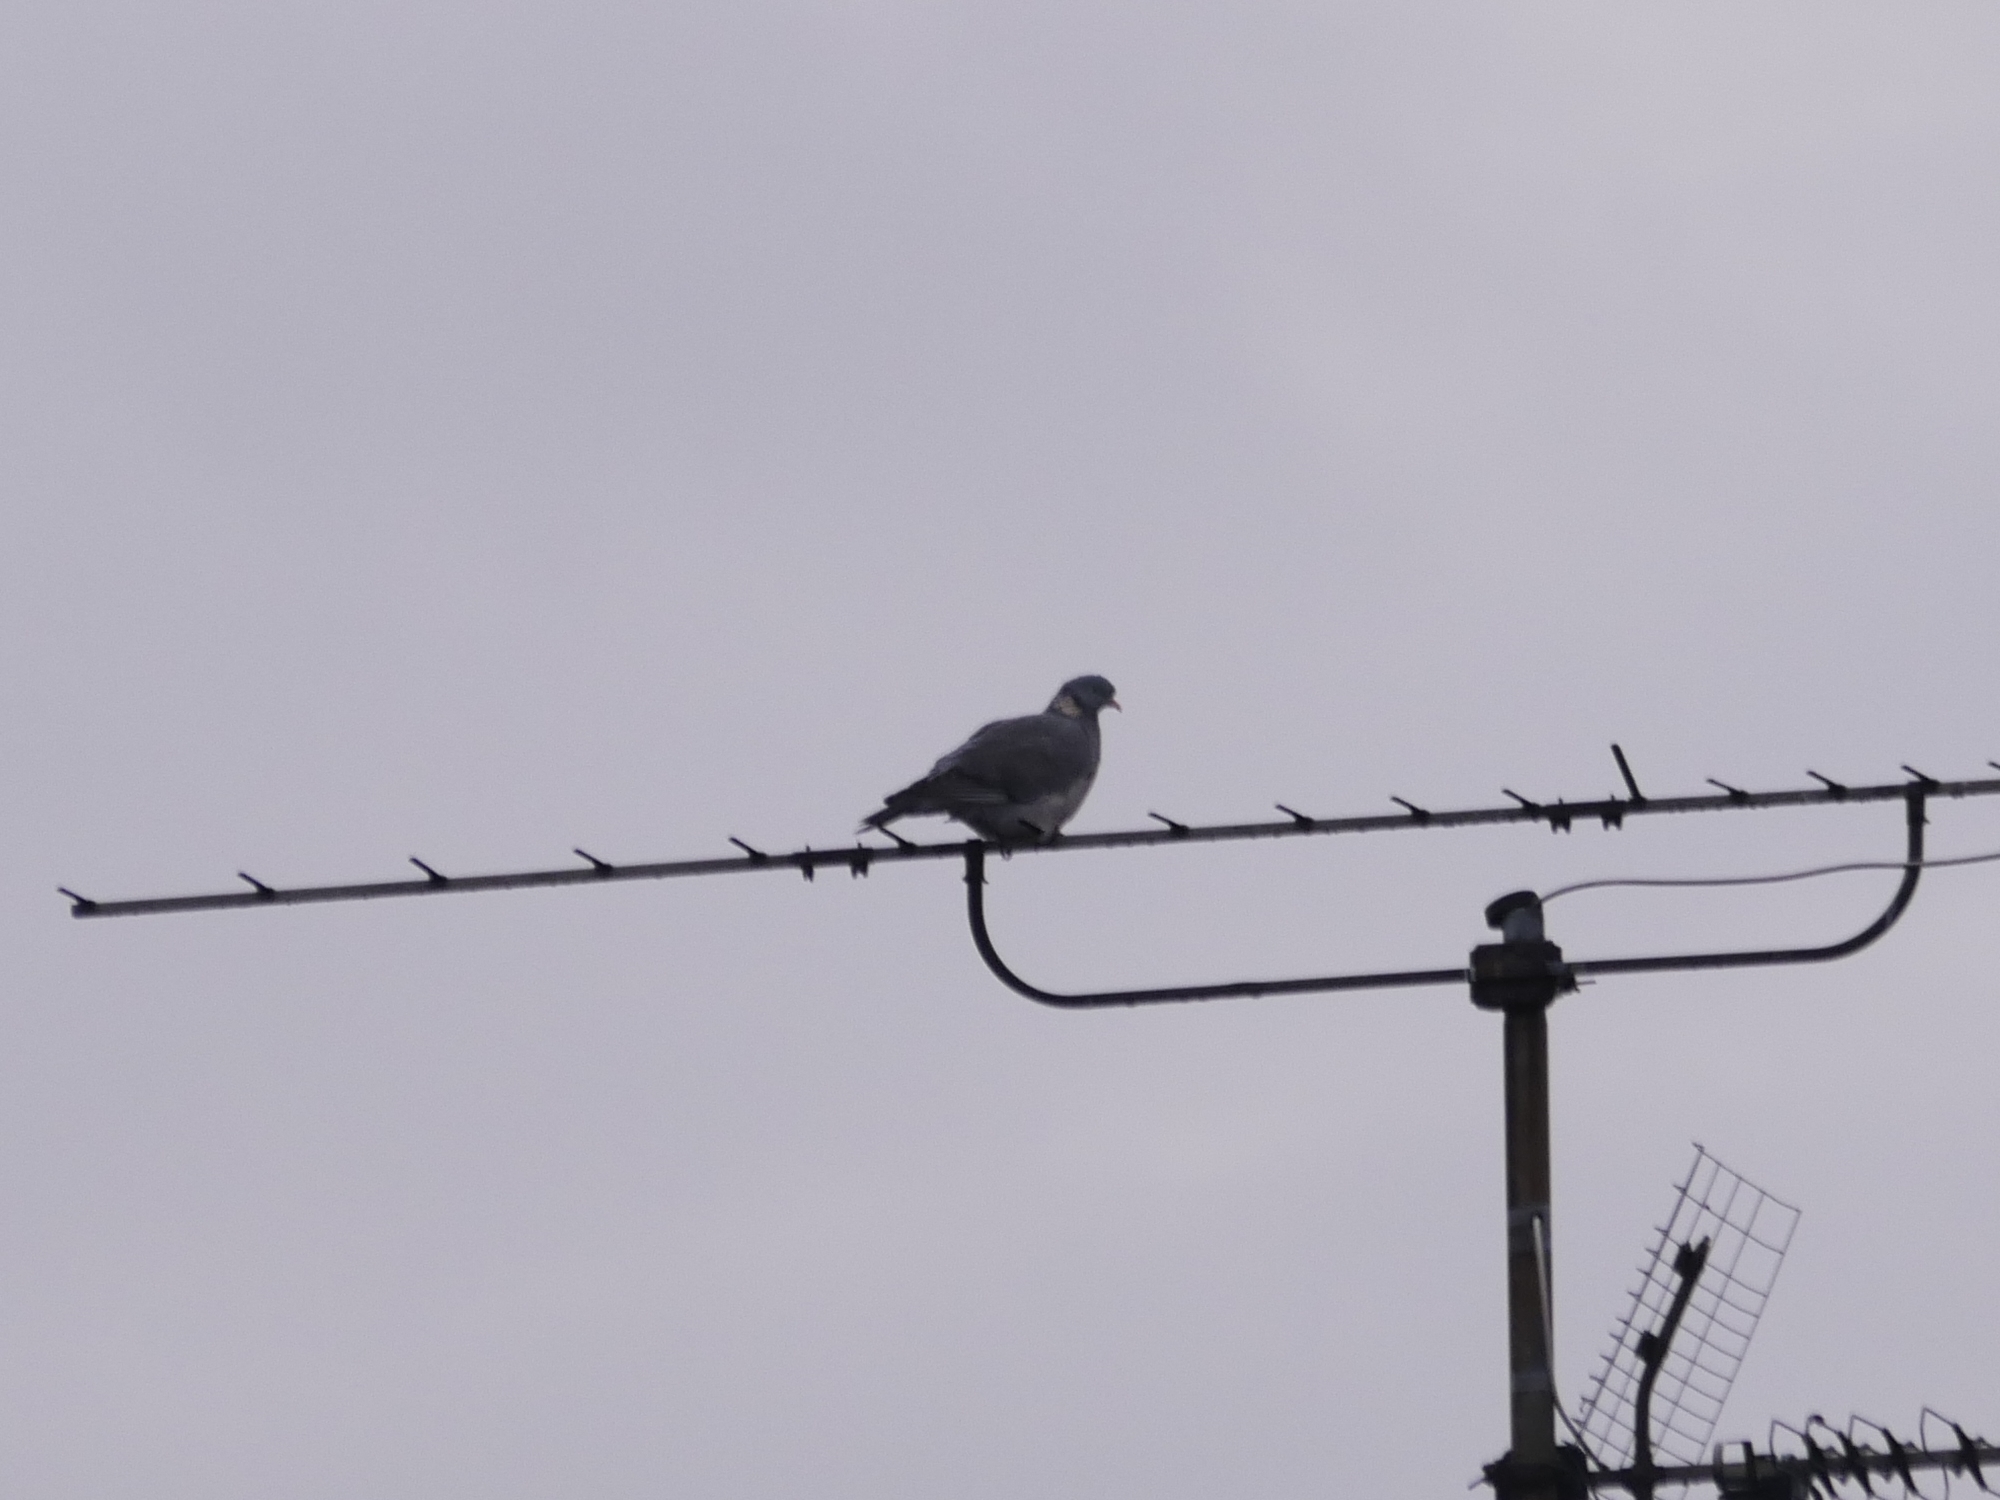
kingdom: Animalia
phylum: Chordata
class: Aves
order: Columbiformes
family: Columbidae
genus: Columba
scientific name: Columba palumbus
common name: Common wood pigeon
